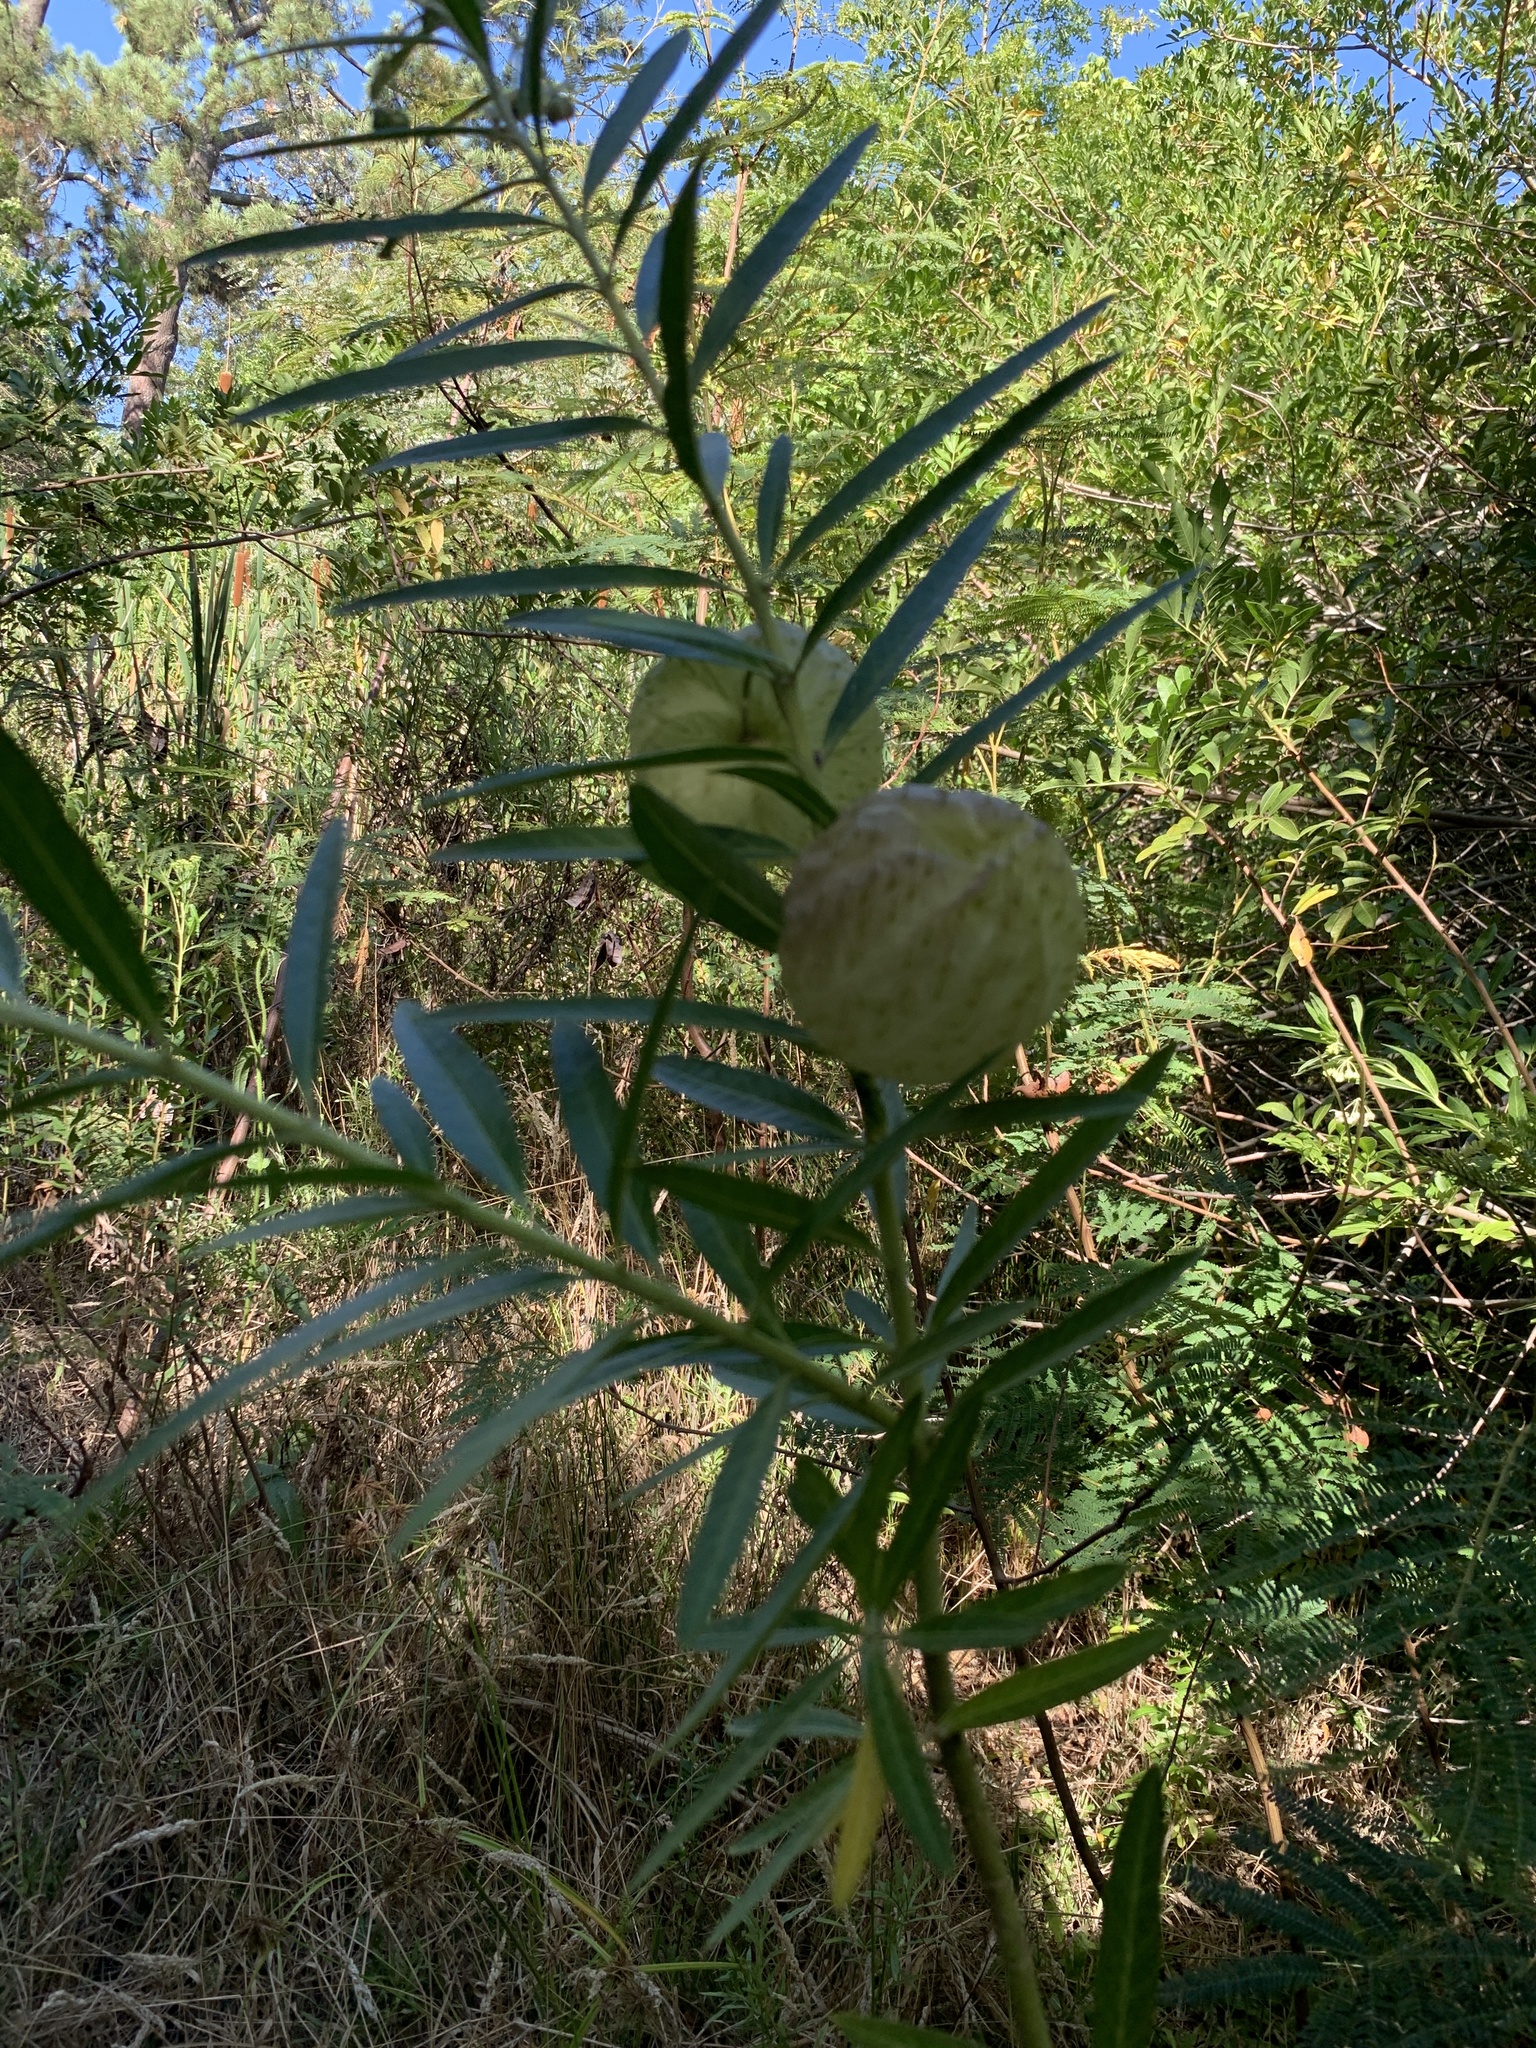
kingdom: Plantae
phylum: Tracheophyta
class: Magnoliopsida
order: Gentianales
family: Apocynaceae
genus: Gomphocarpus
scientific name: Gomphocarpus physocarpus
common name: Balloon cotton bush
